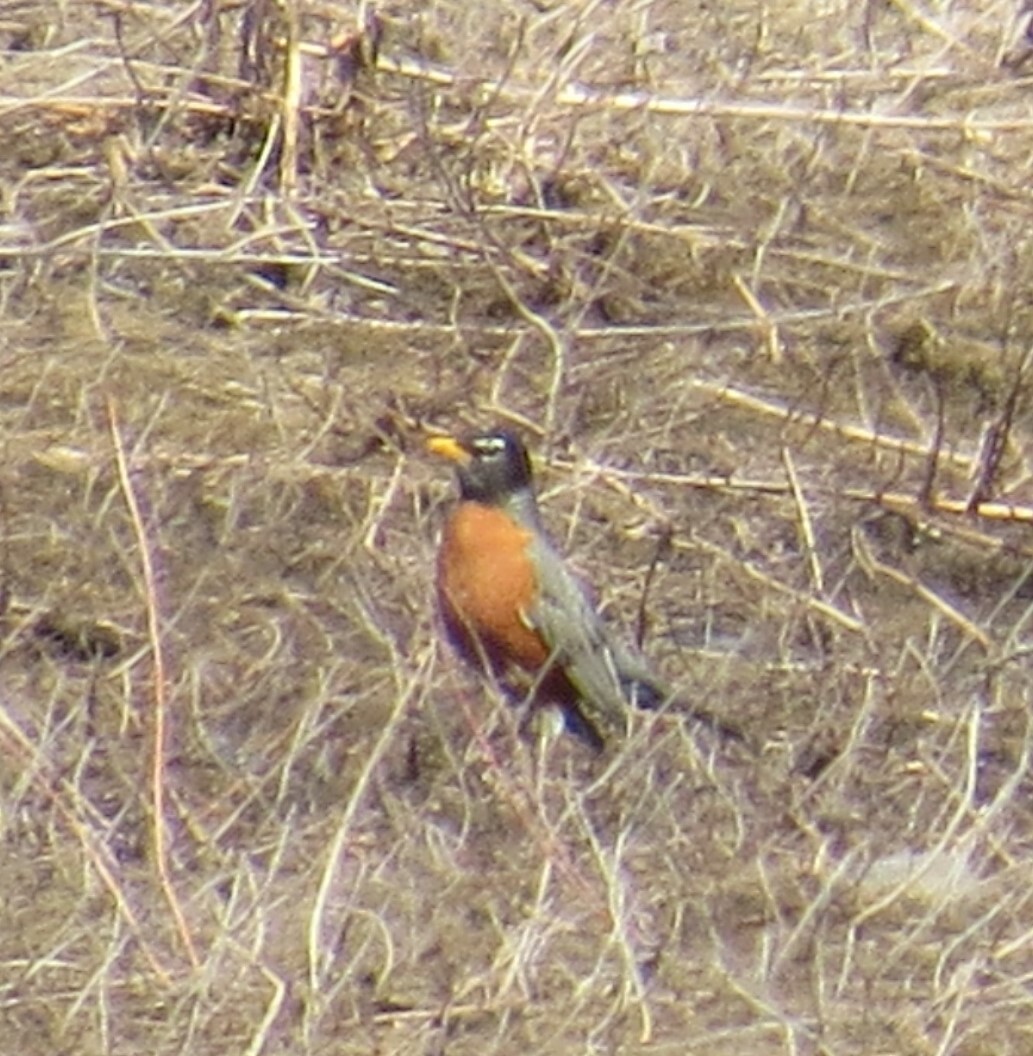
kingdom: Animalia
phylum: Chordata
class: Aves
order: Passeriformes
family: Turdidae
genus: Turdus
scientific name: Turdus migratorius
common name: American robin
